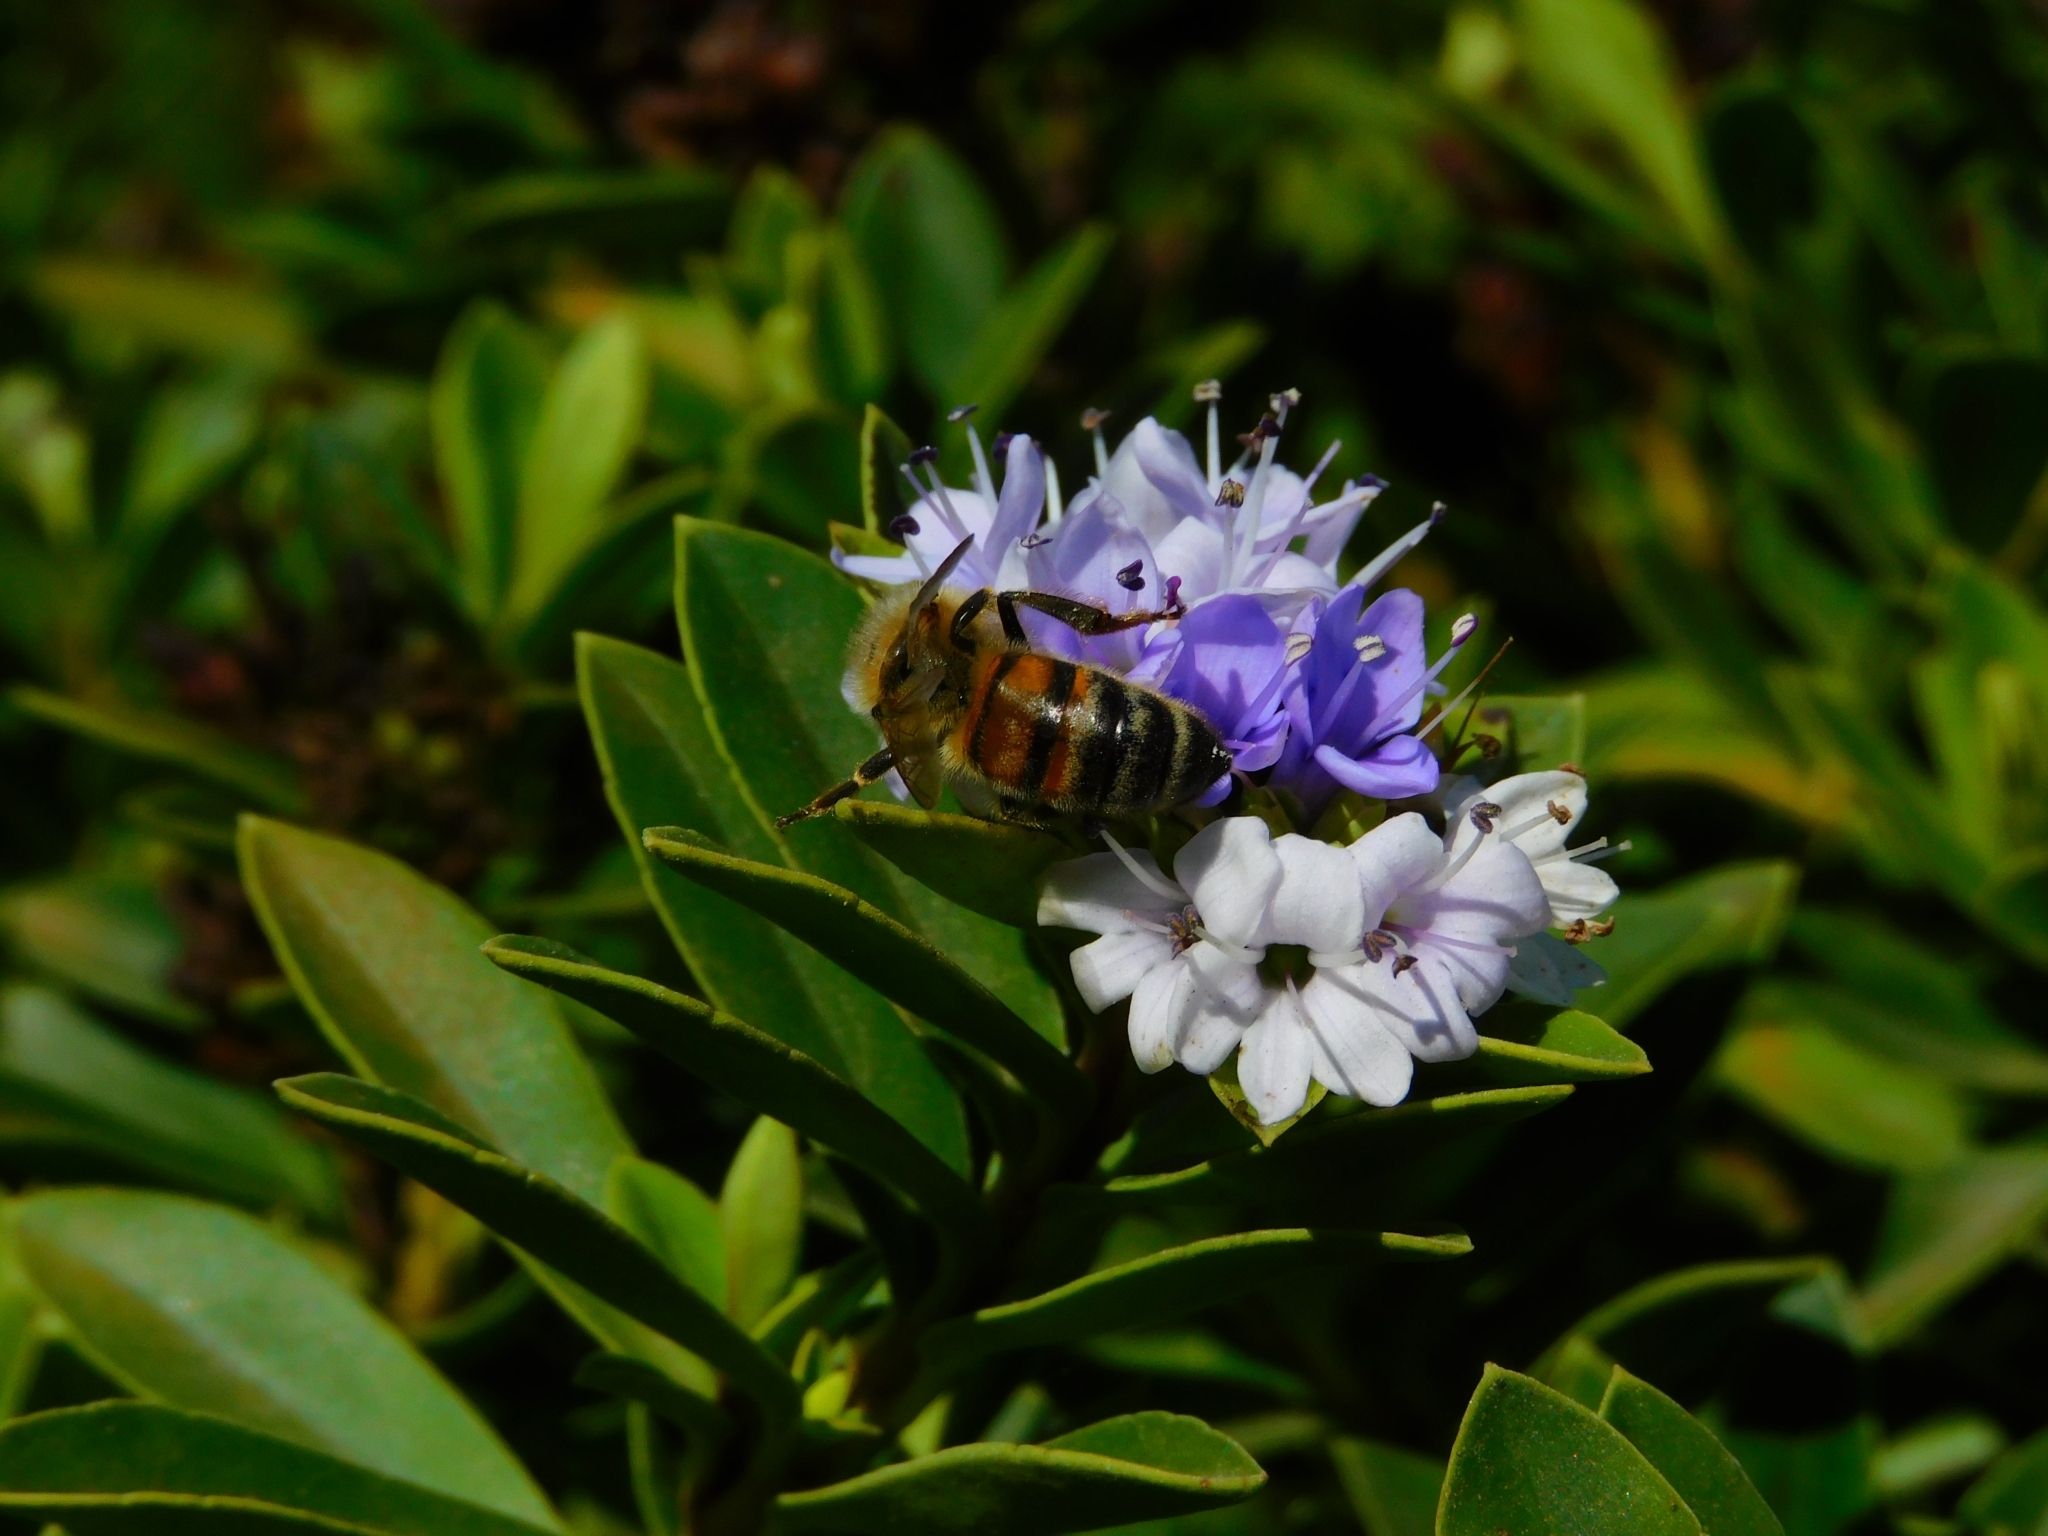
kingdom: Animalia
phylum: Arthropoda
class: Insecta
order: Hymenoptera
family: Apidae
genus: Apis
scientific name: Apis mellifera
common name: Honey bee
